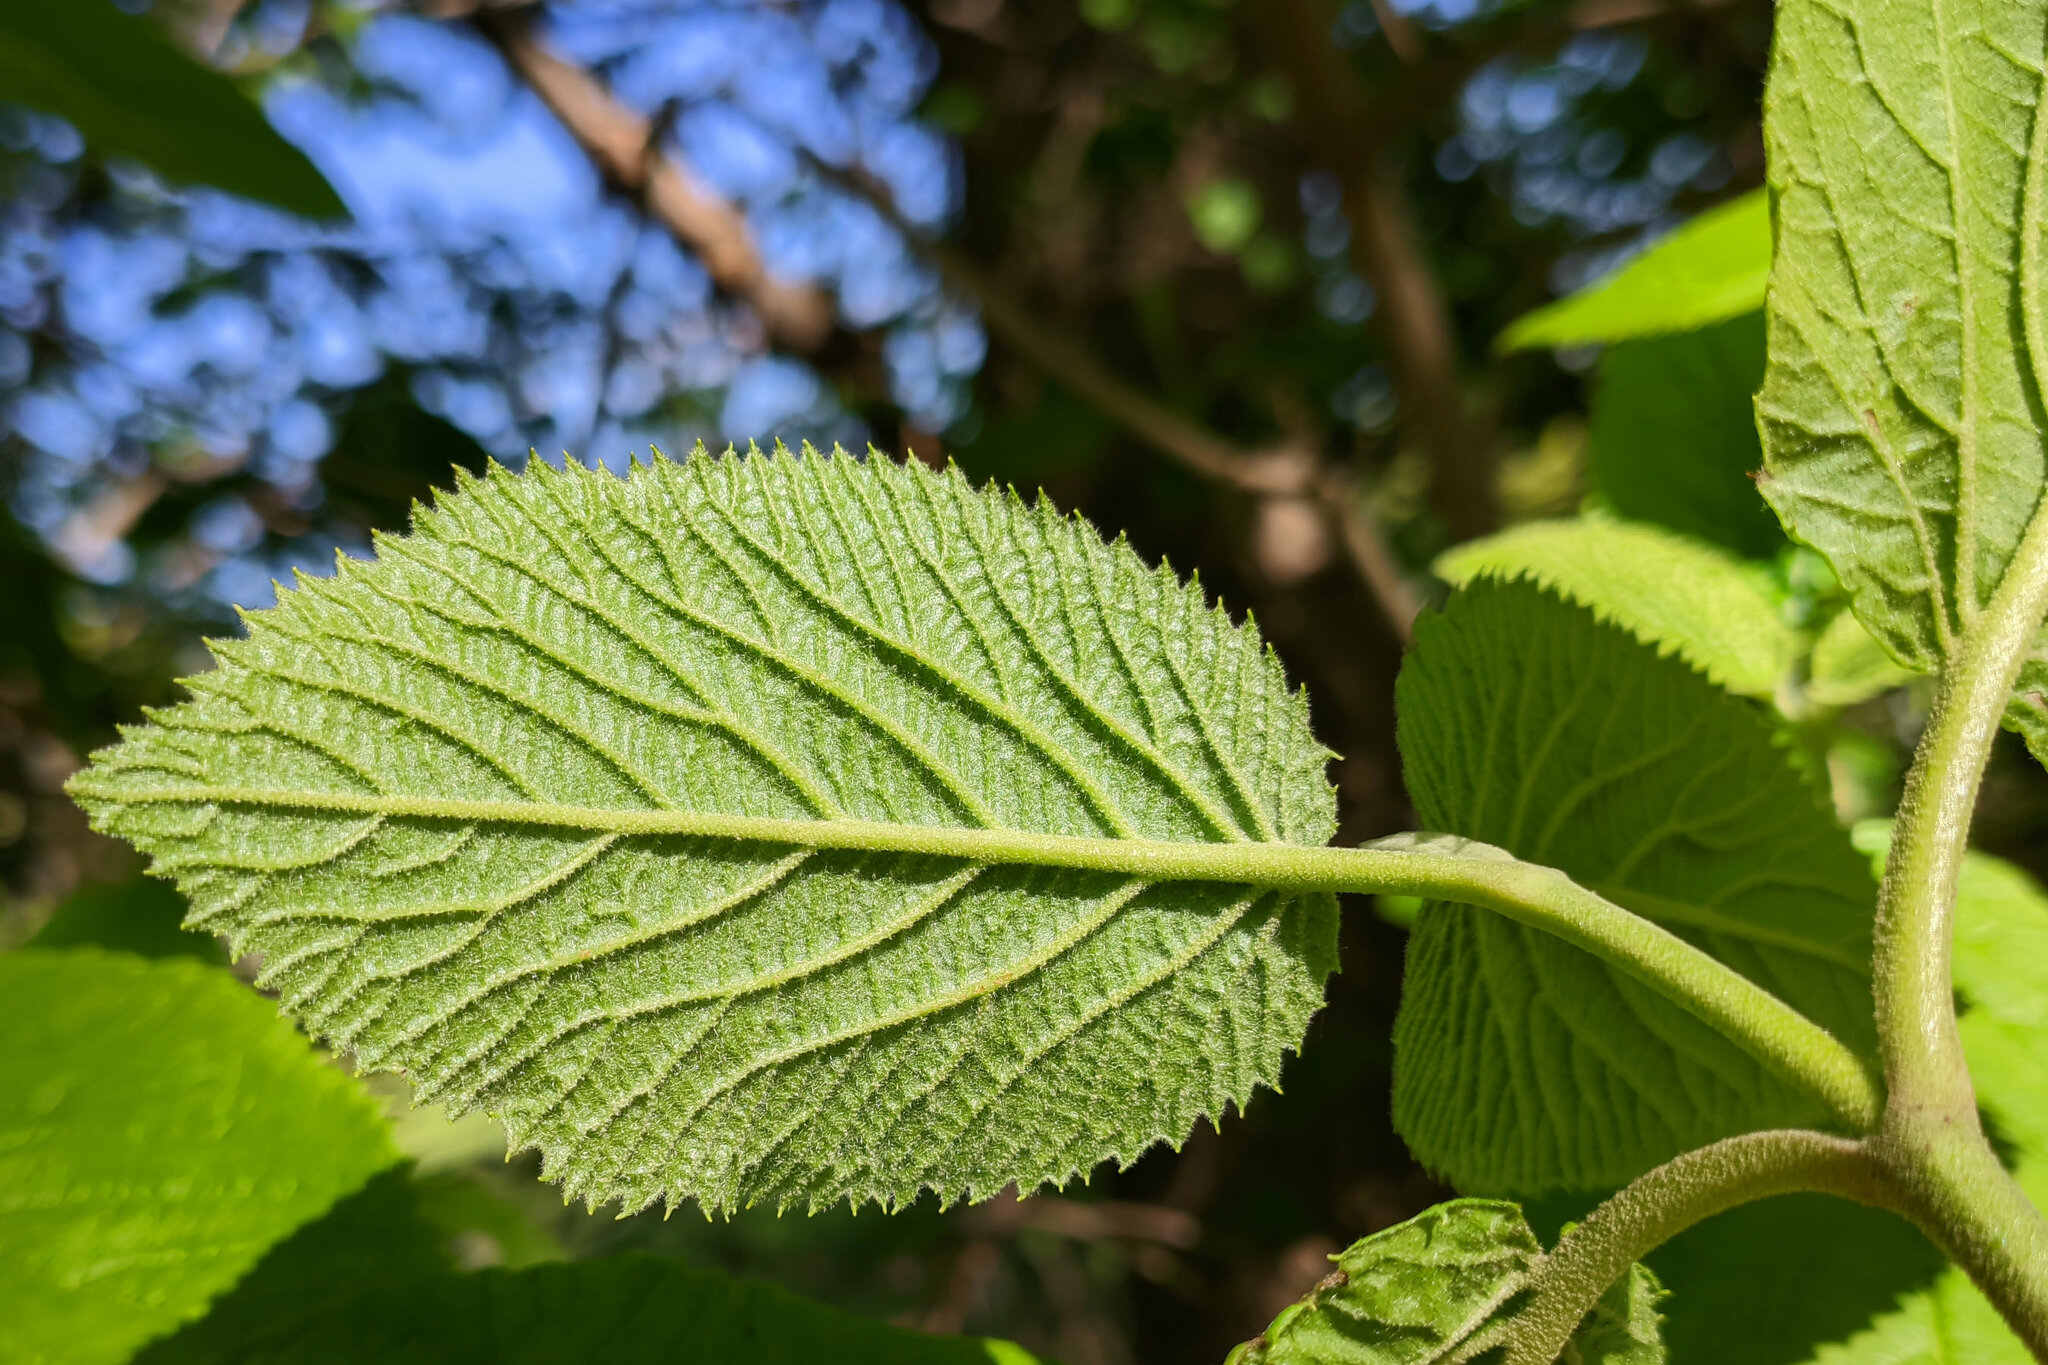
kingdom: Plantae
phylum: Tracheophyta
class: Magnoliopsida
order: Dipsacales
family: Viburnaceae
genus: Viburnum
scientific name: Viburnum lantana
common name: Wayfaring tree
